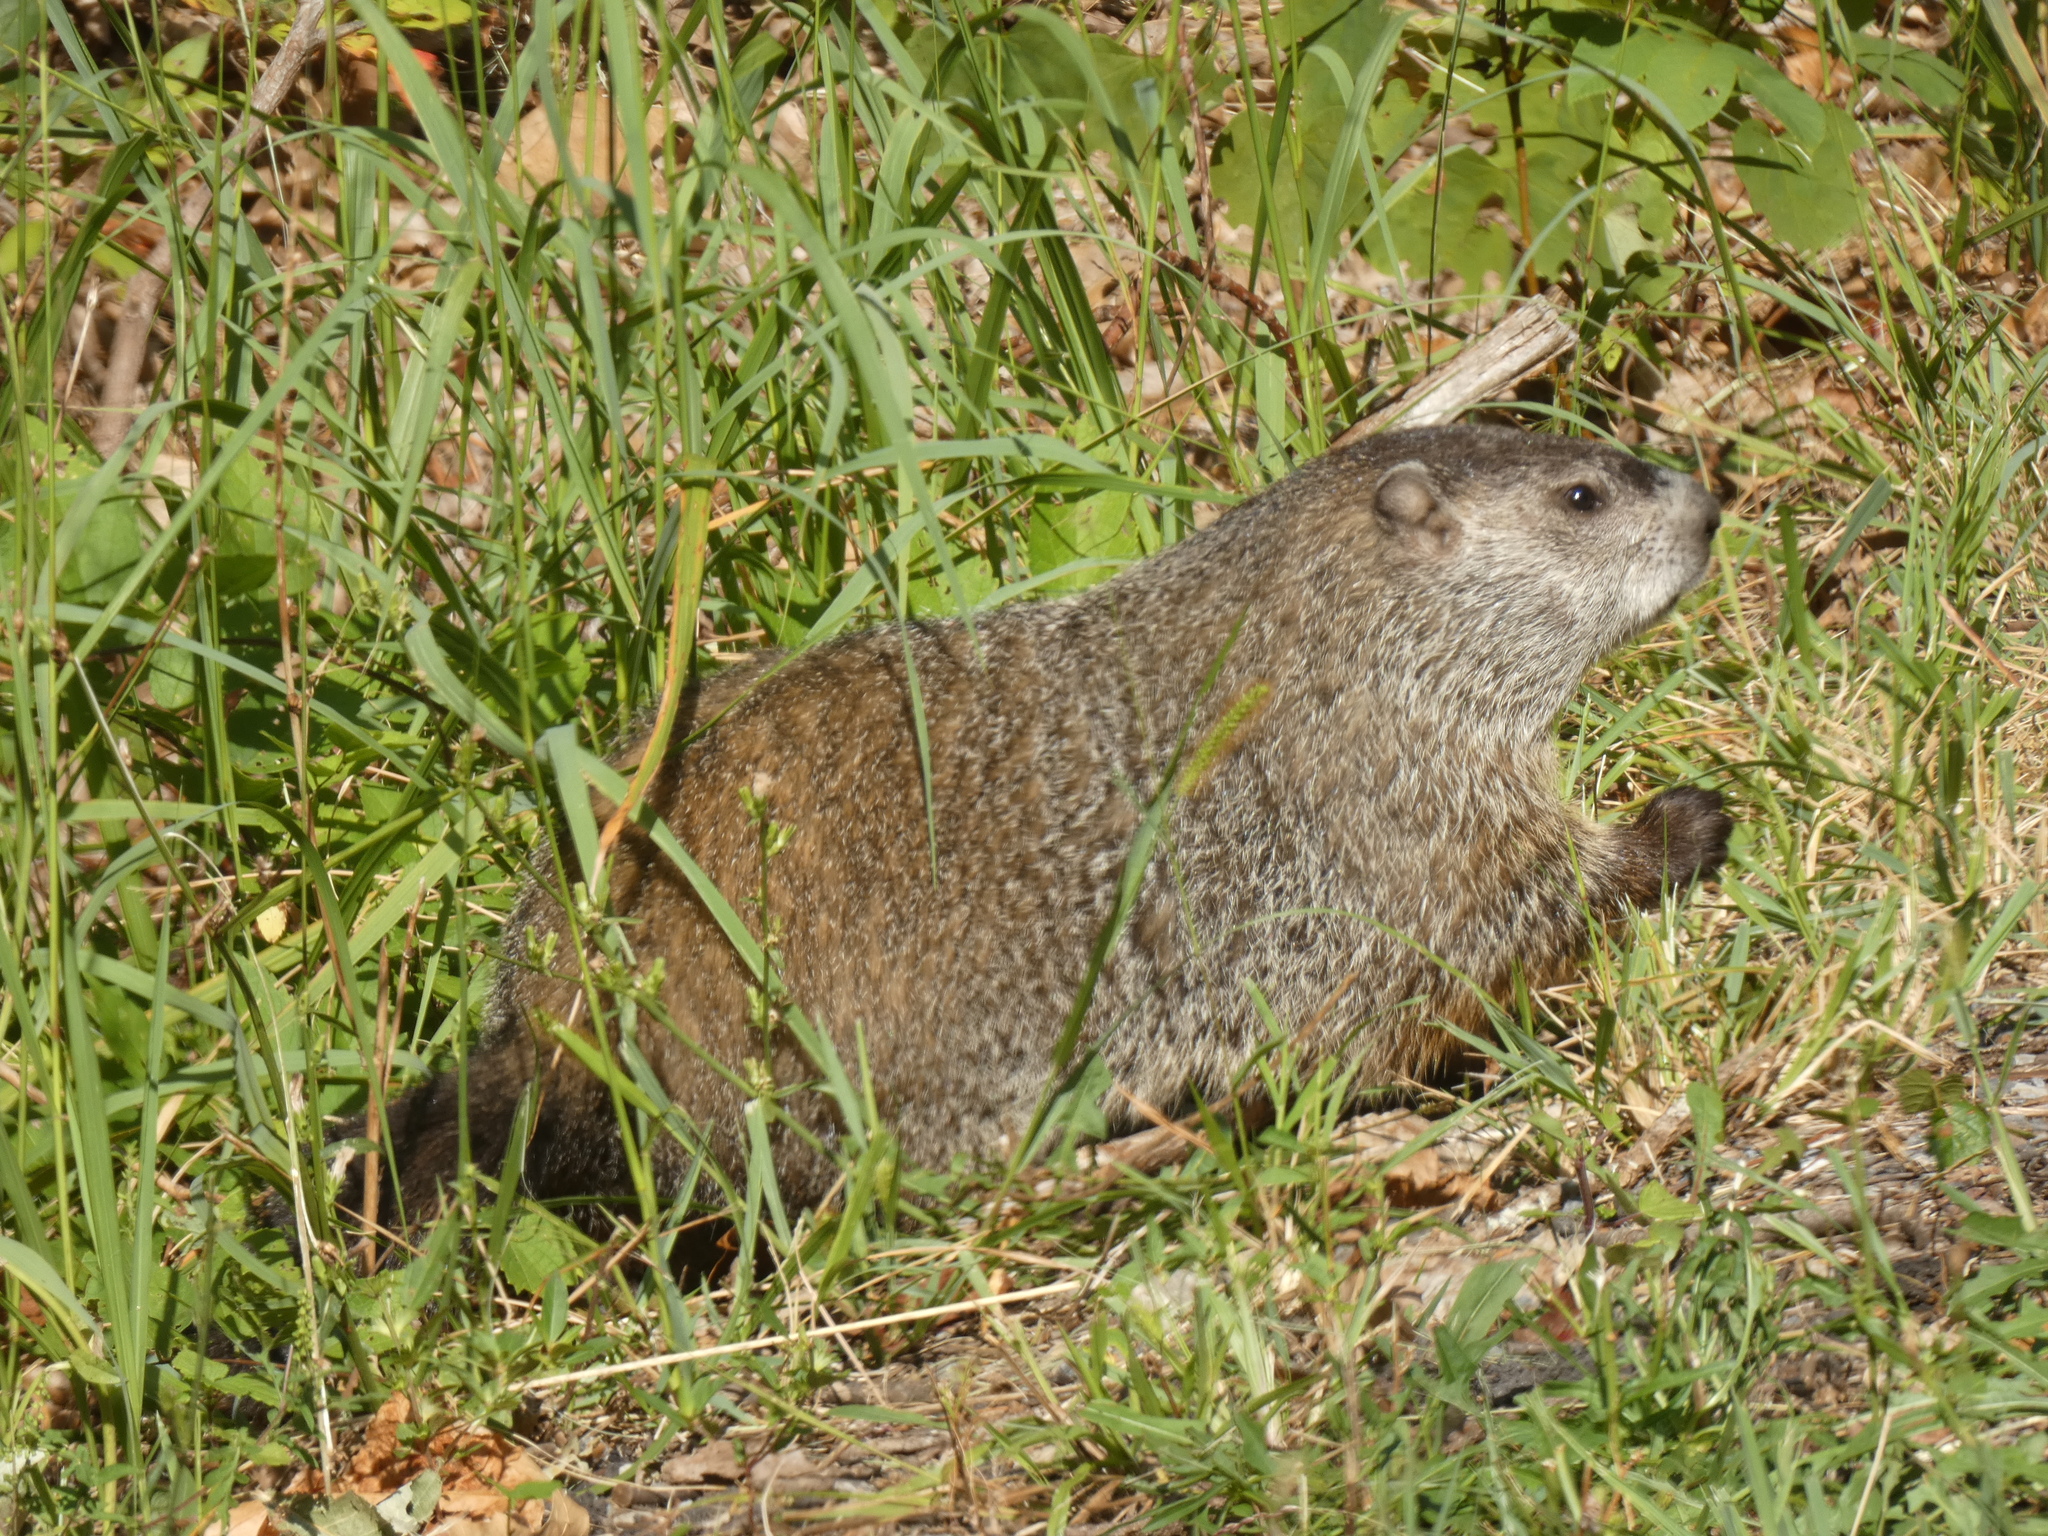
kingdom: Animalia
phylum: Chordata
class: Mammalia
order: Rodentia
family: Sciuridae
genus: Marmota
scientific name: Marmota monax
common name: Groundhog
